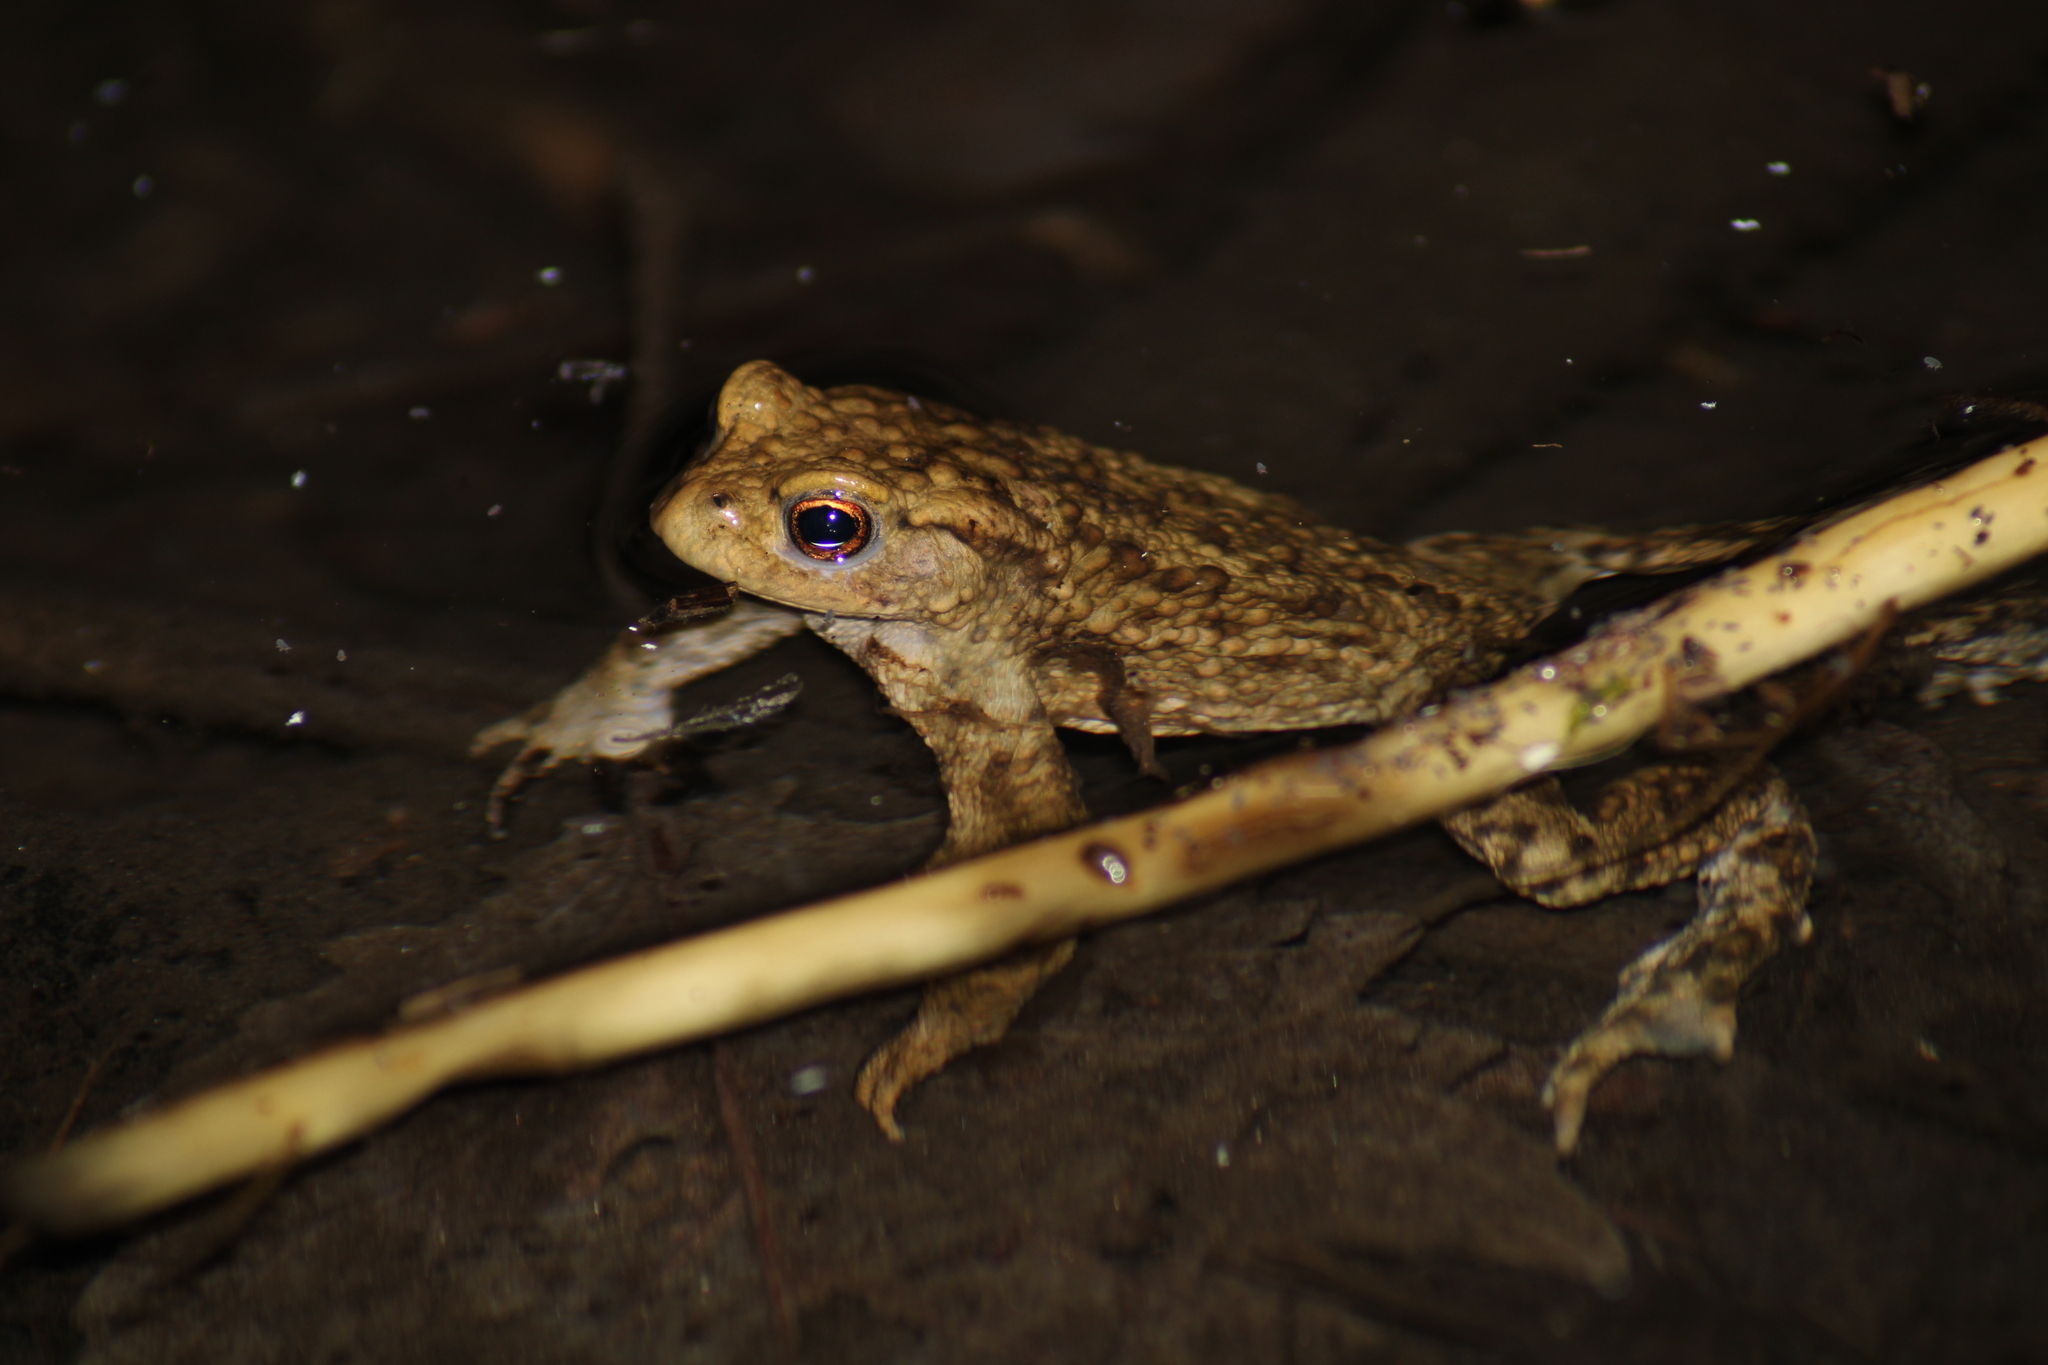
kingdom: Animalia
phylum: Chordata
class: Amphibia
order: Anura
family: Bufonidae
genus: Bufo
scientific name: Bufo bufo
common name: Common toad
